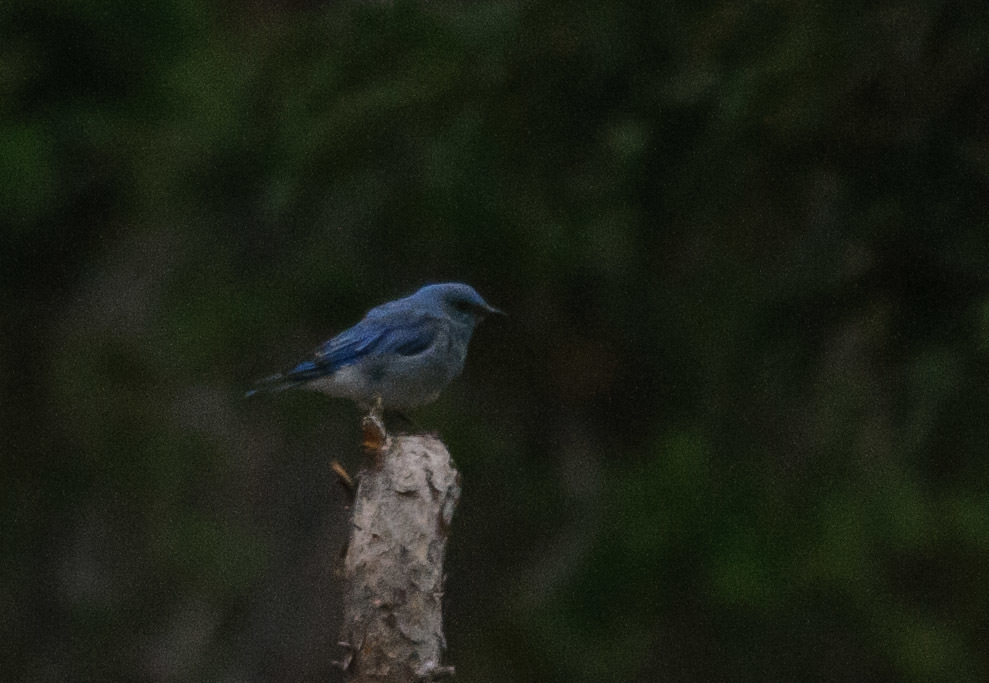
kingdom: Animalia
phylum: Chordata
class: Aves
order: Passeriformes
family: Turdidae
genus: Sialia
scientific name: Sialia currucoides
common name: Mountain bluebird
